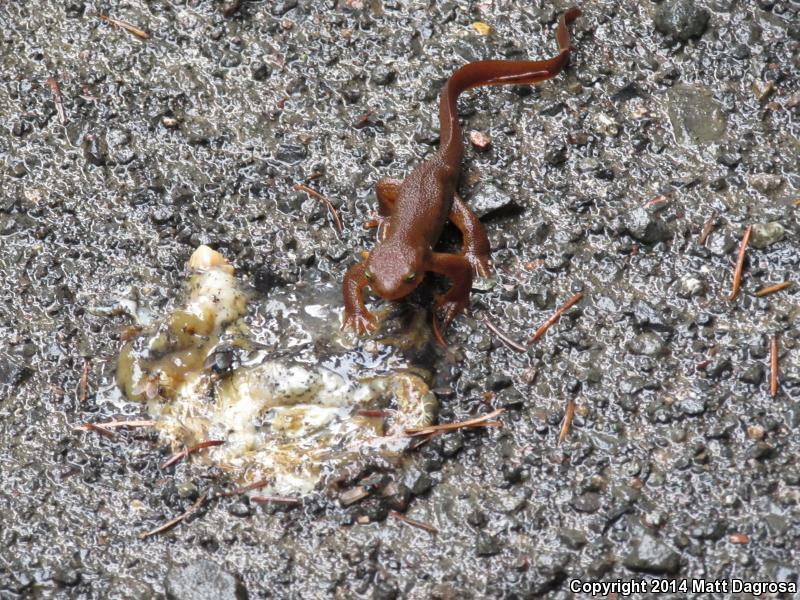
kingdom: Animalia
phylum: Chordata
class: Amphibia
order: Caudata
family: Salamandridae
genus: Taricha
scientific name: Taricha granulosa
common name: Roughskin newt
